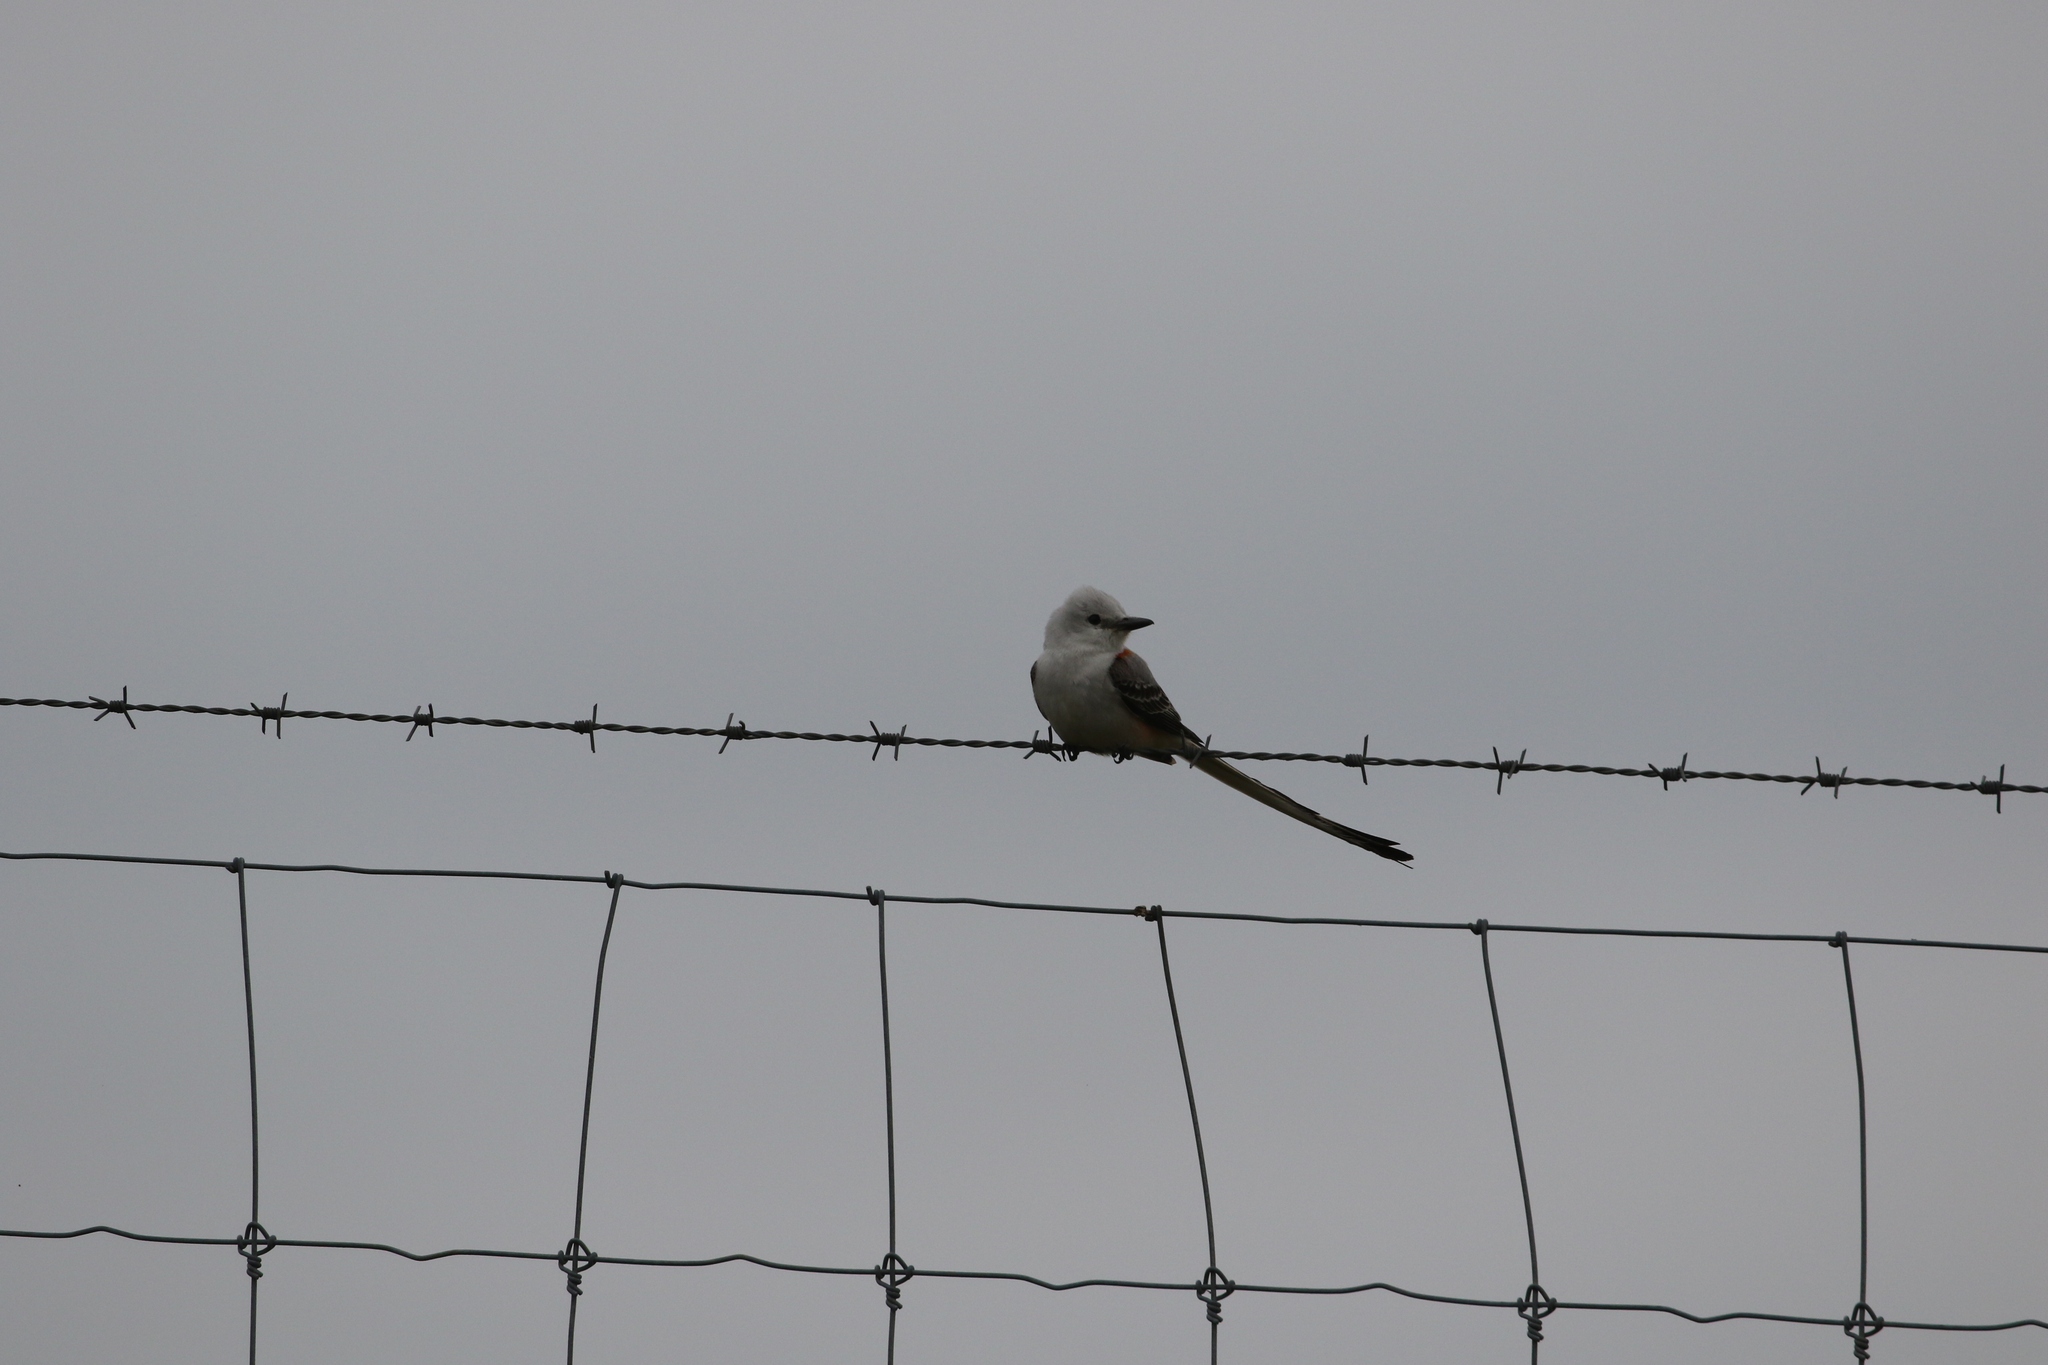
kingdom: Animalia
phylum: Chordata
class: Aves
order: Passeriformes
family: Tyrannidae
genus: Tyrannus
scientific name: Tyrannus forficatus
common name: Scissor-tailed flycatcher
